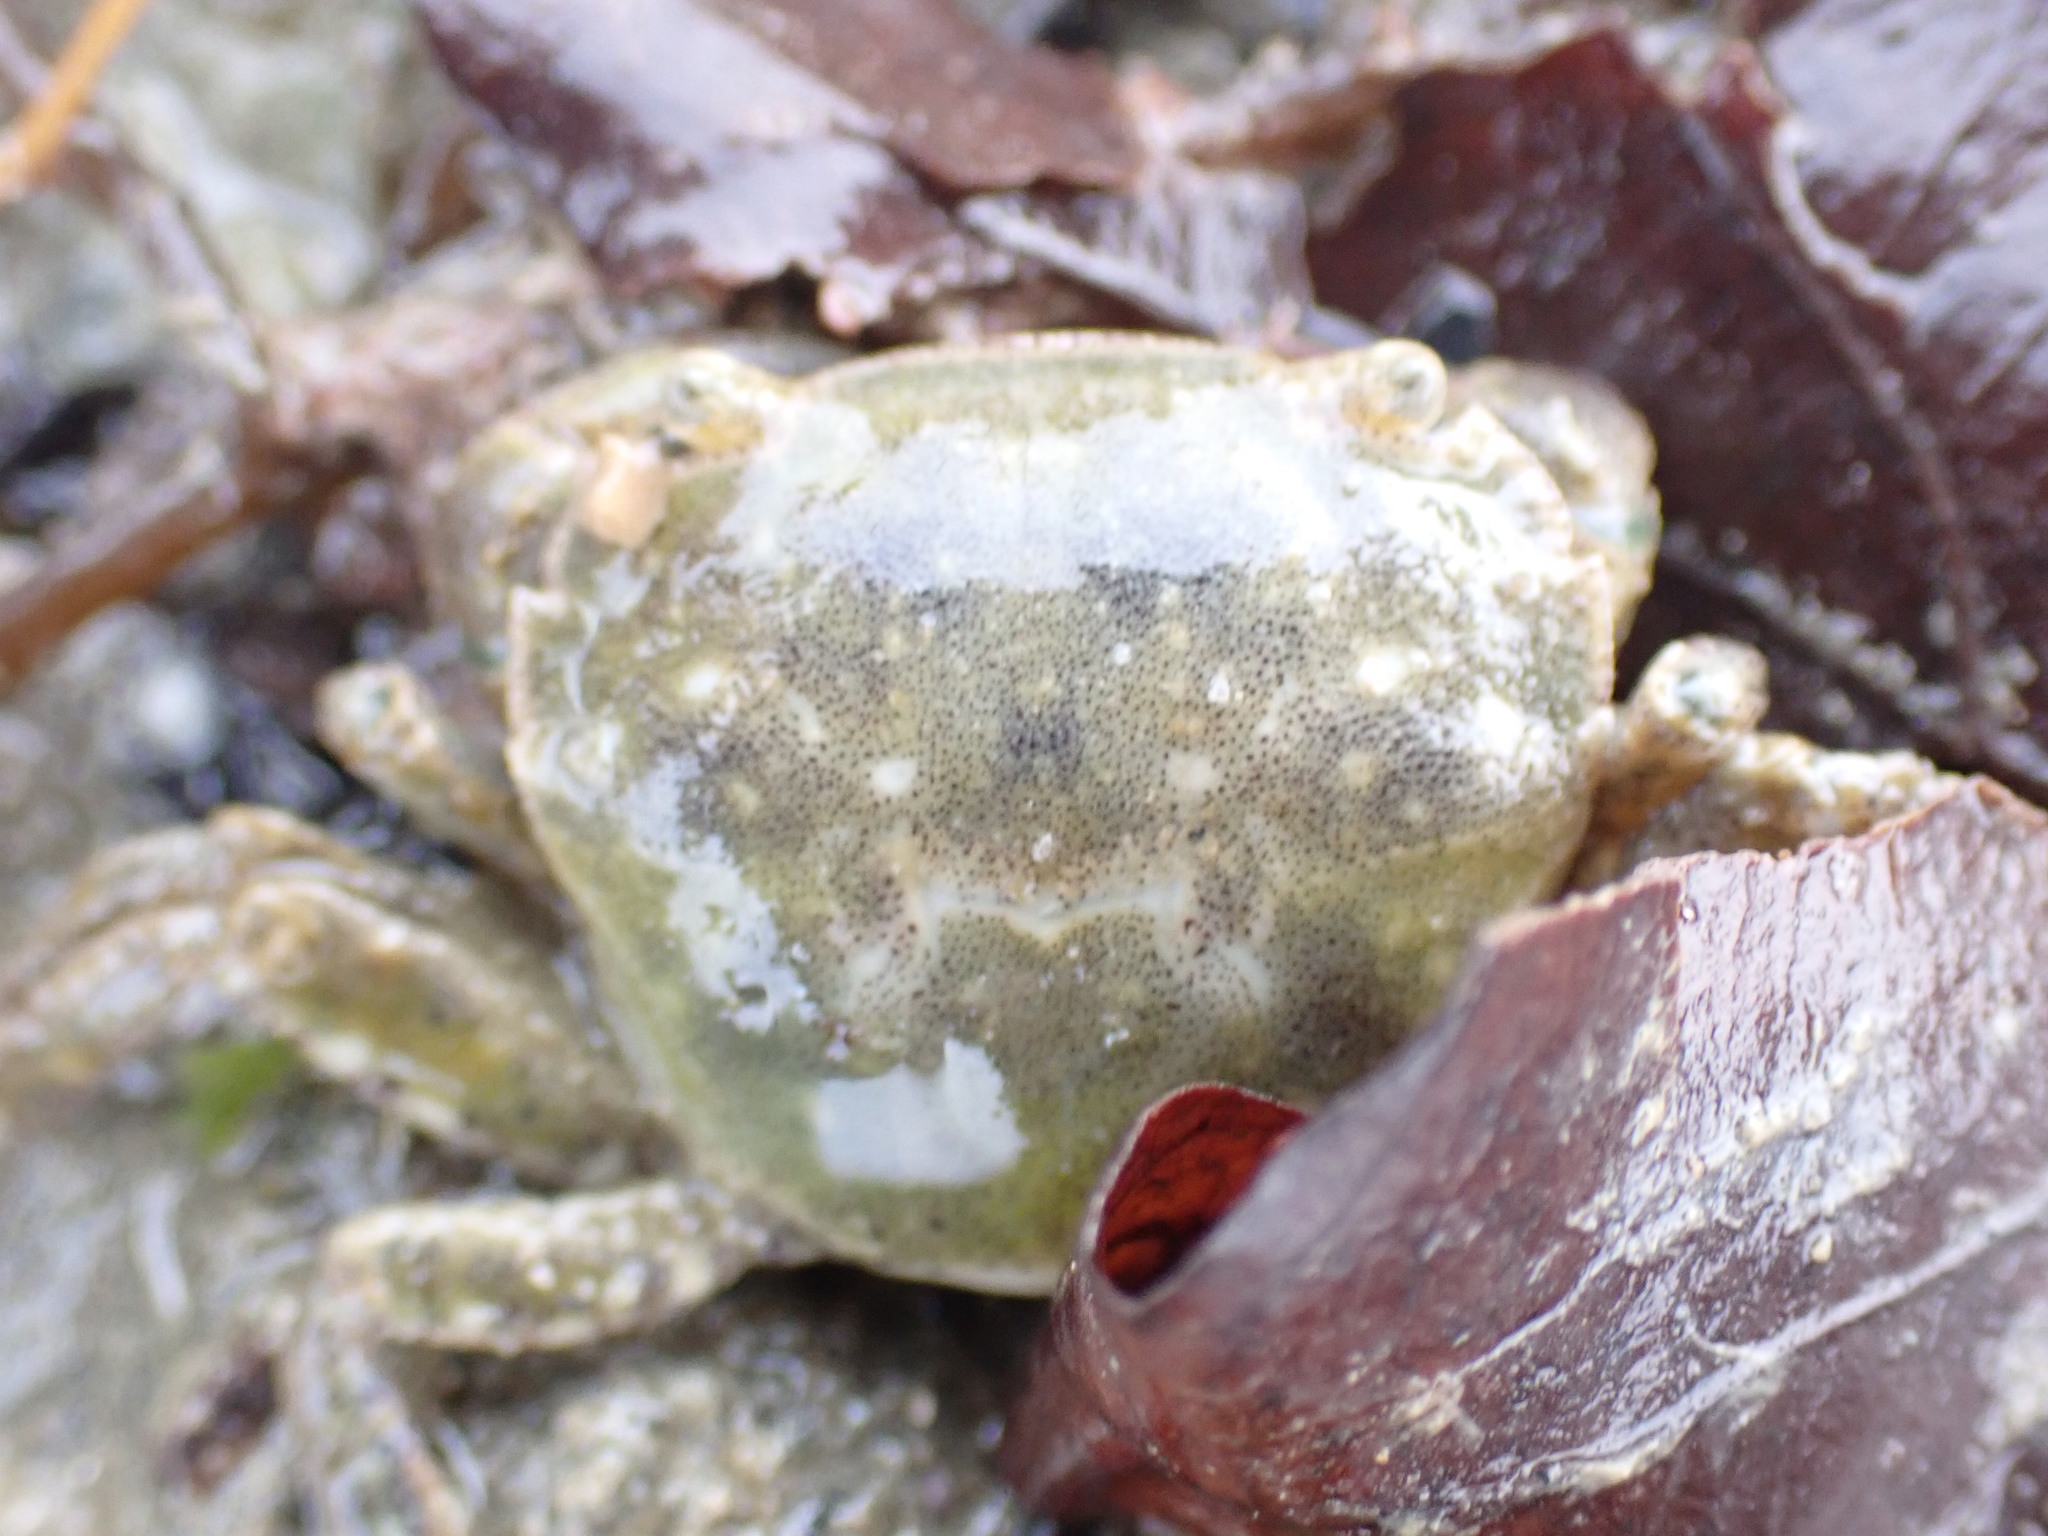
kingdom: Animalia
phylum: Arthropoda
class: Malacostraca
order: Decapoda
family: Varunidae
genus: Hemigrapsus
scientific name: Hemigrapsus crenulatus
